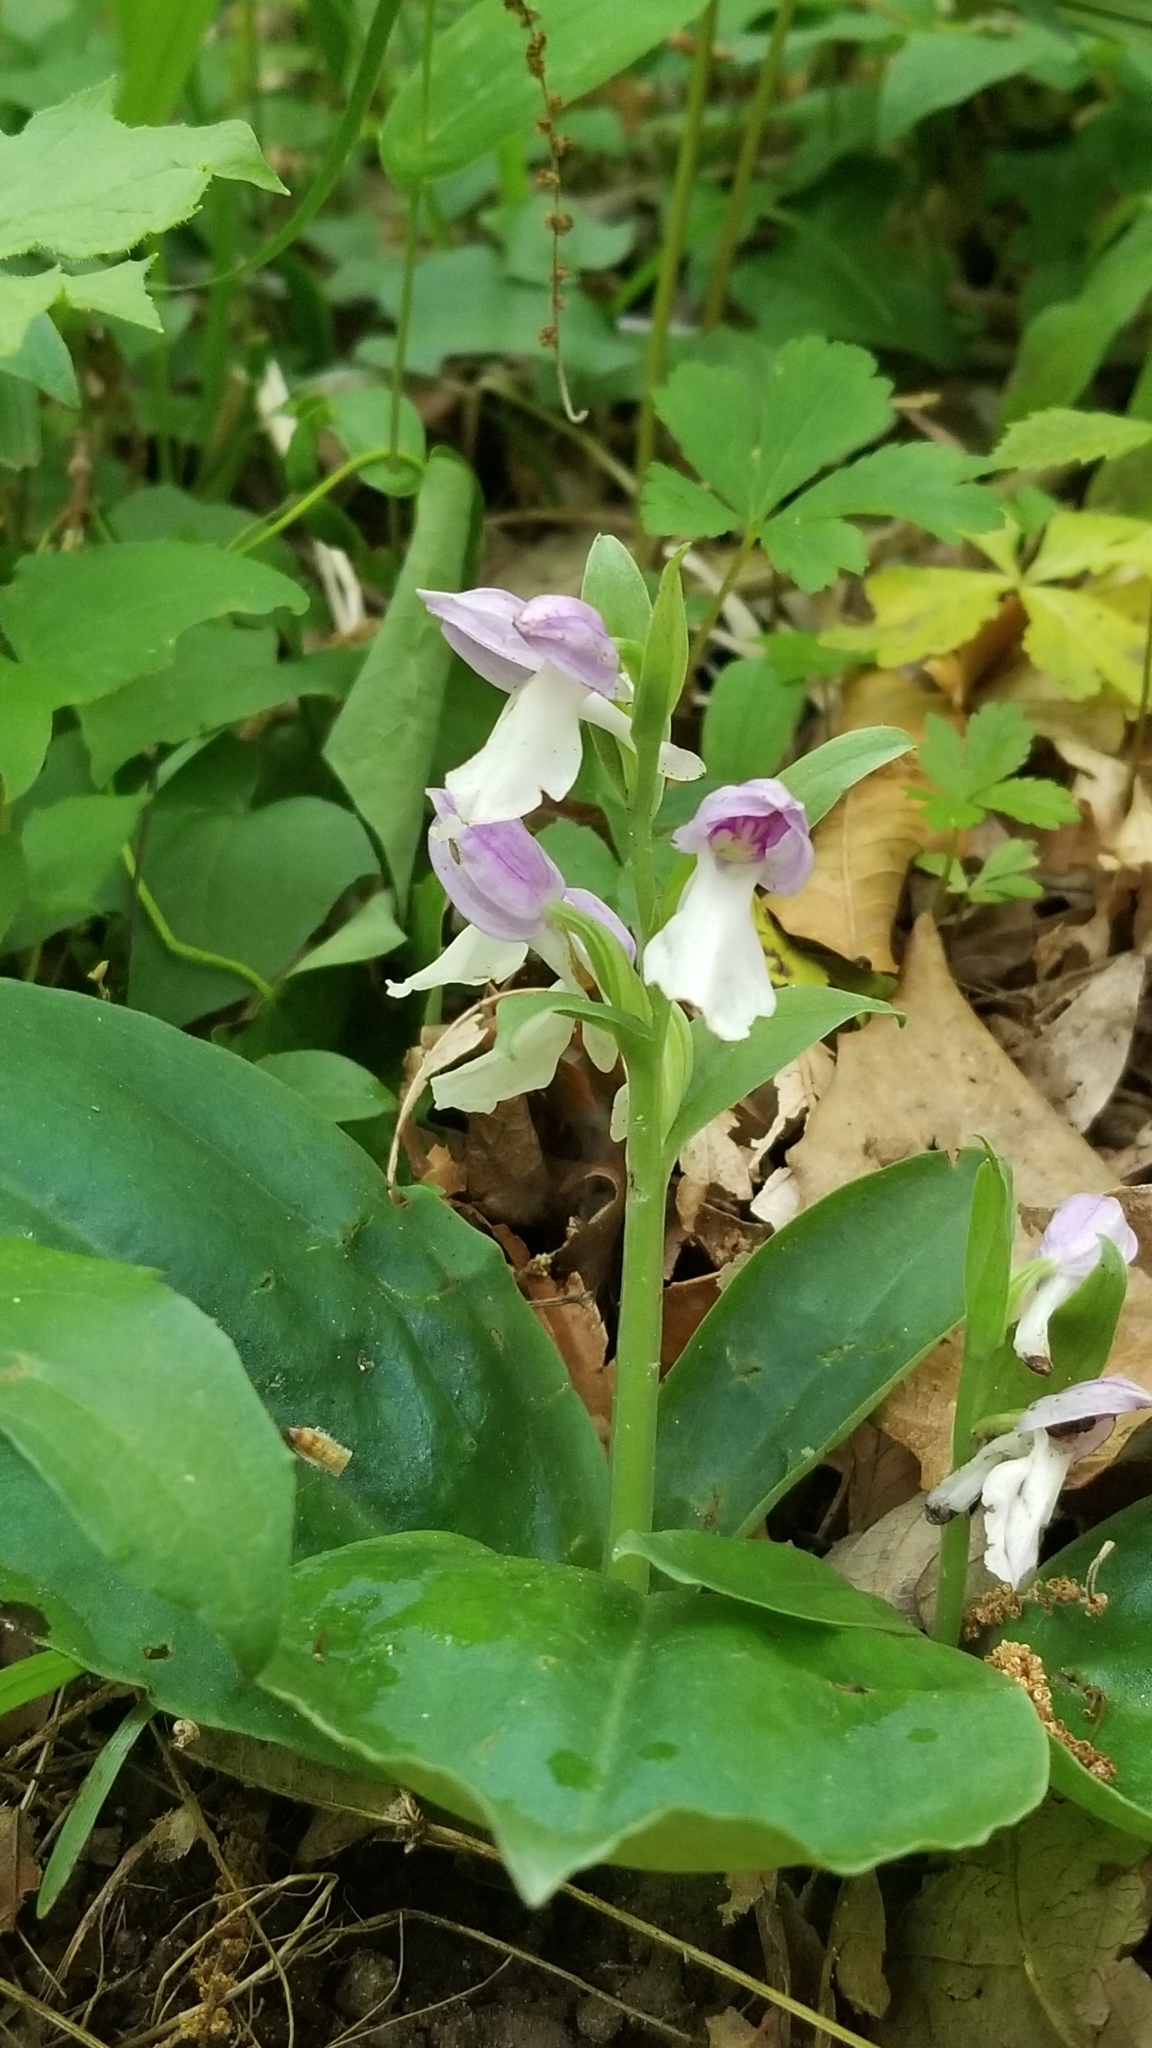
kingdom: Plantae
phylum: Tracheophyta
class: Liliopsida
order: Asparagales
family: Orchidaceae
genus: Galearis
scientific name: Galearis spectabilis
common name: Purple-hooded orchis
